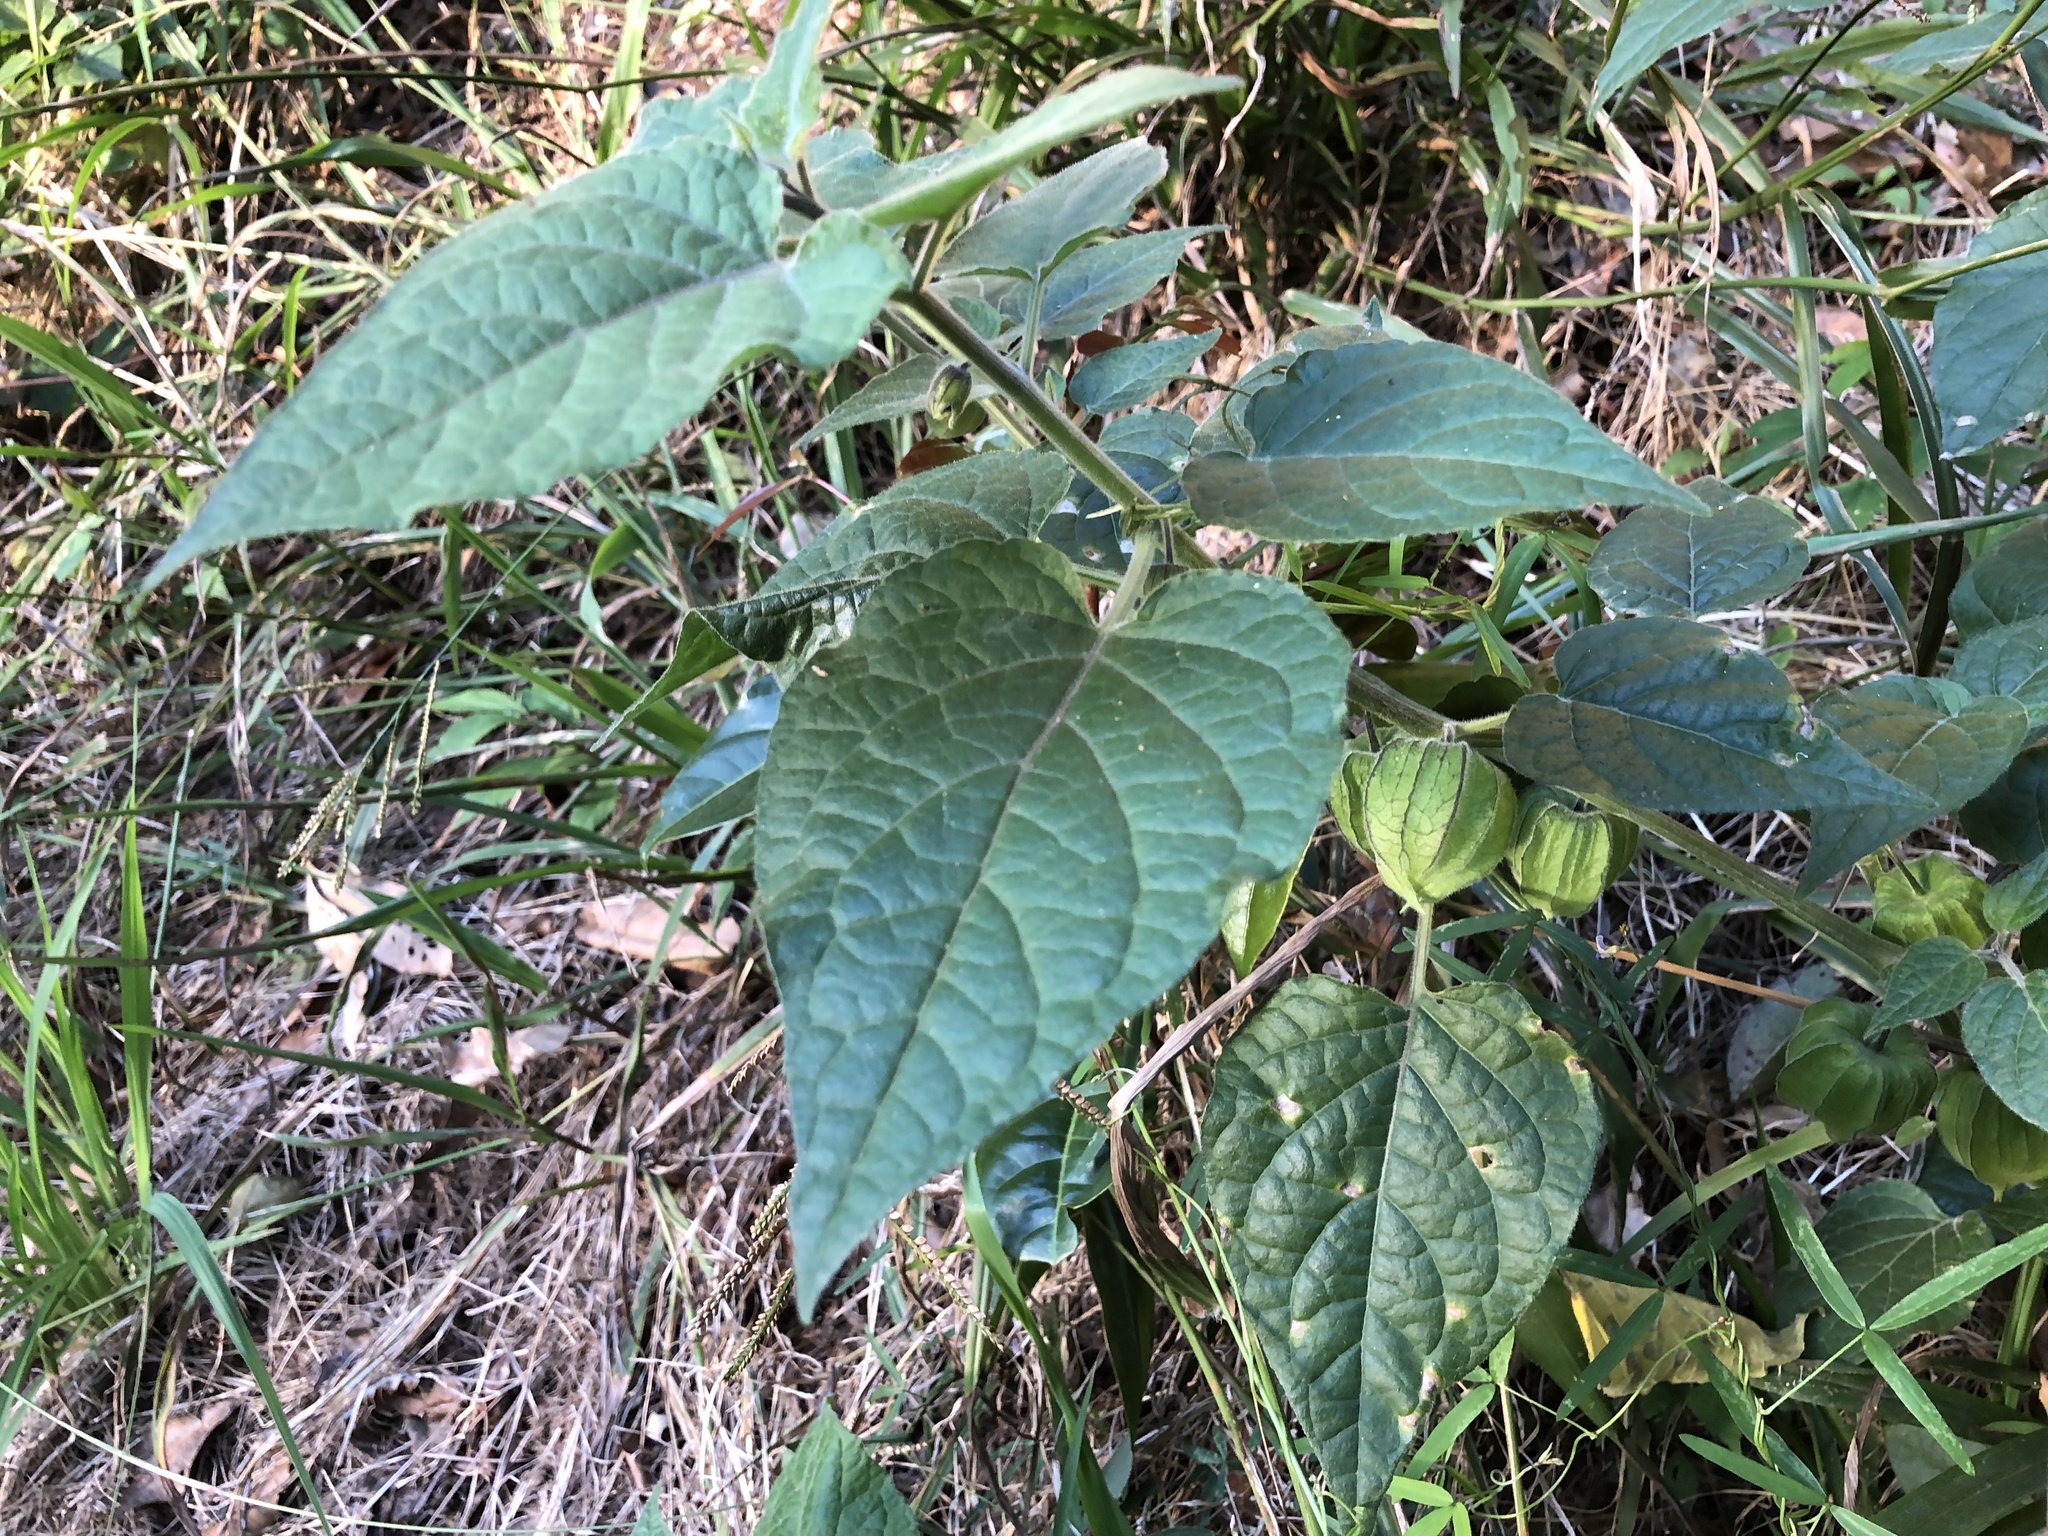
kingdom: Plantae
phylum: Tracheophyta
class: Magnoliopsida
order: Solanales
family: Solanaceae
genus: Physalis
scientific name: Physalis peruviana
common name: Cape-gooseberry
